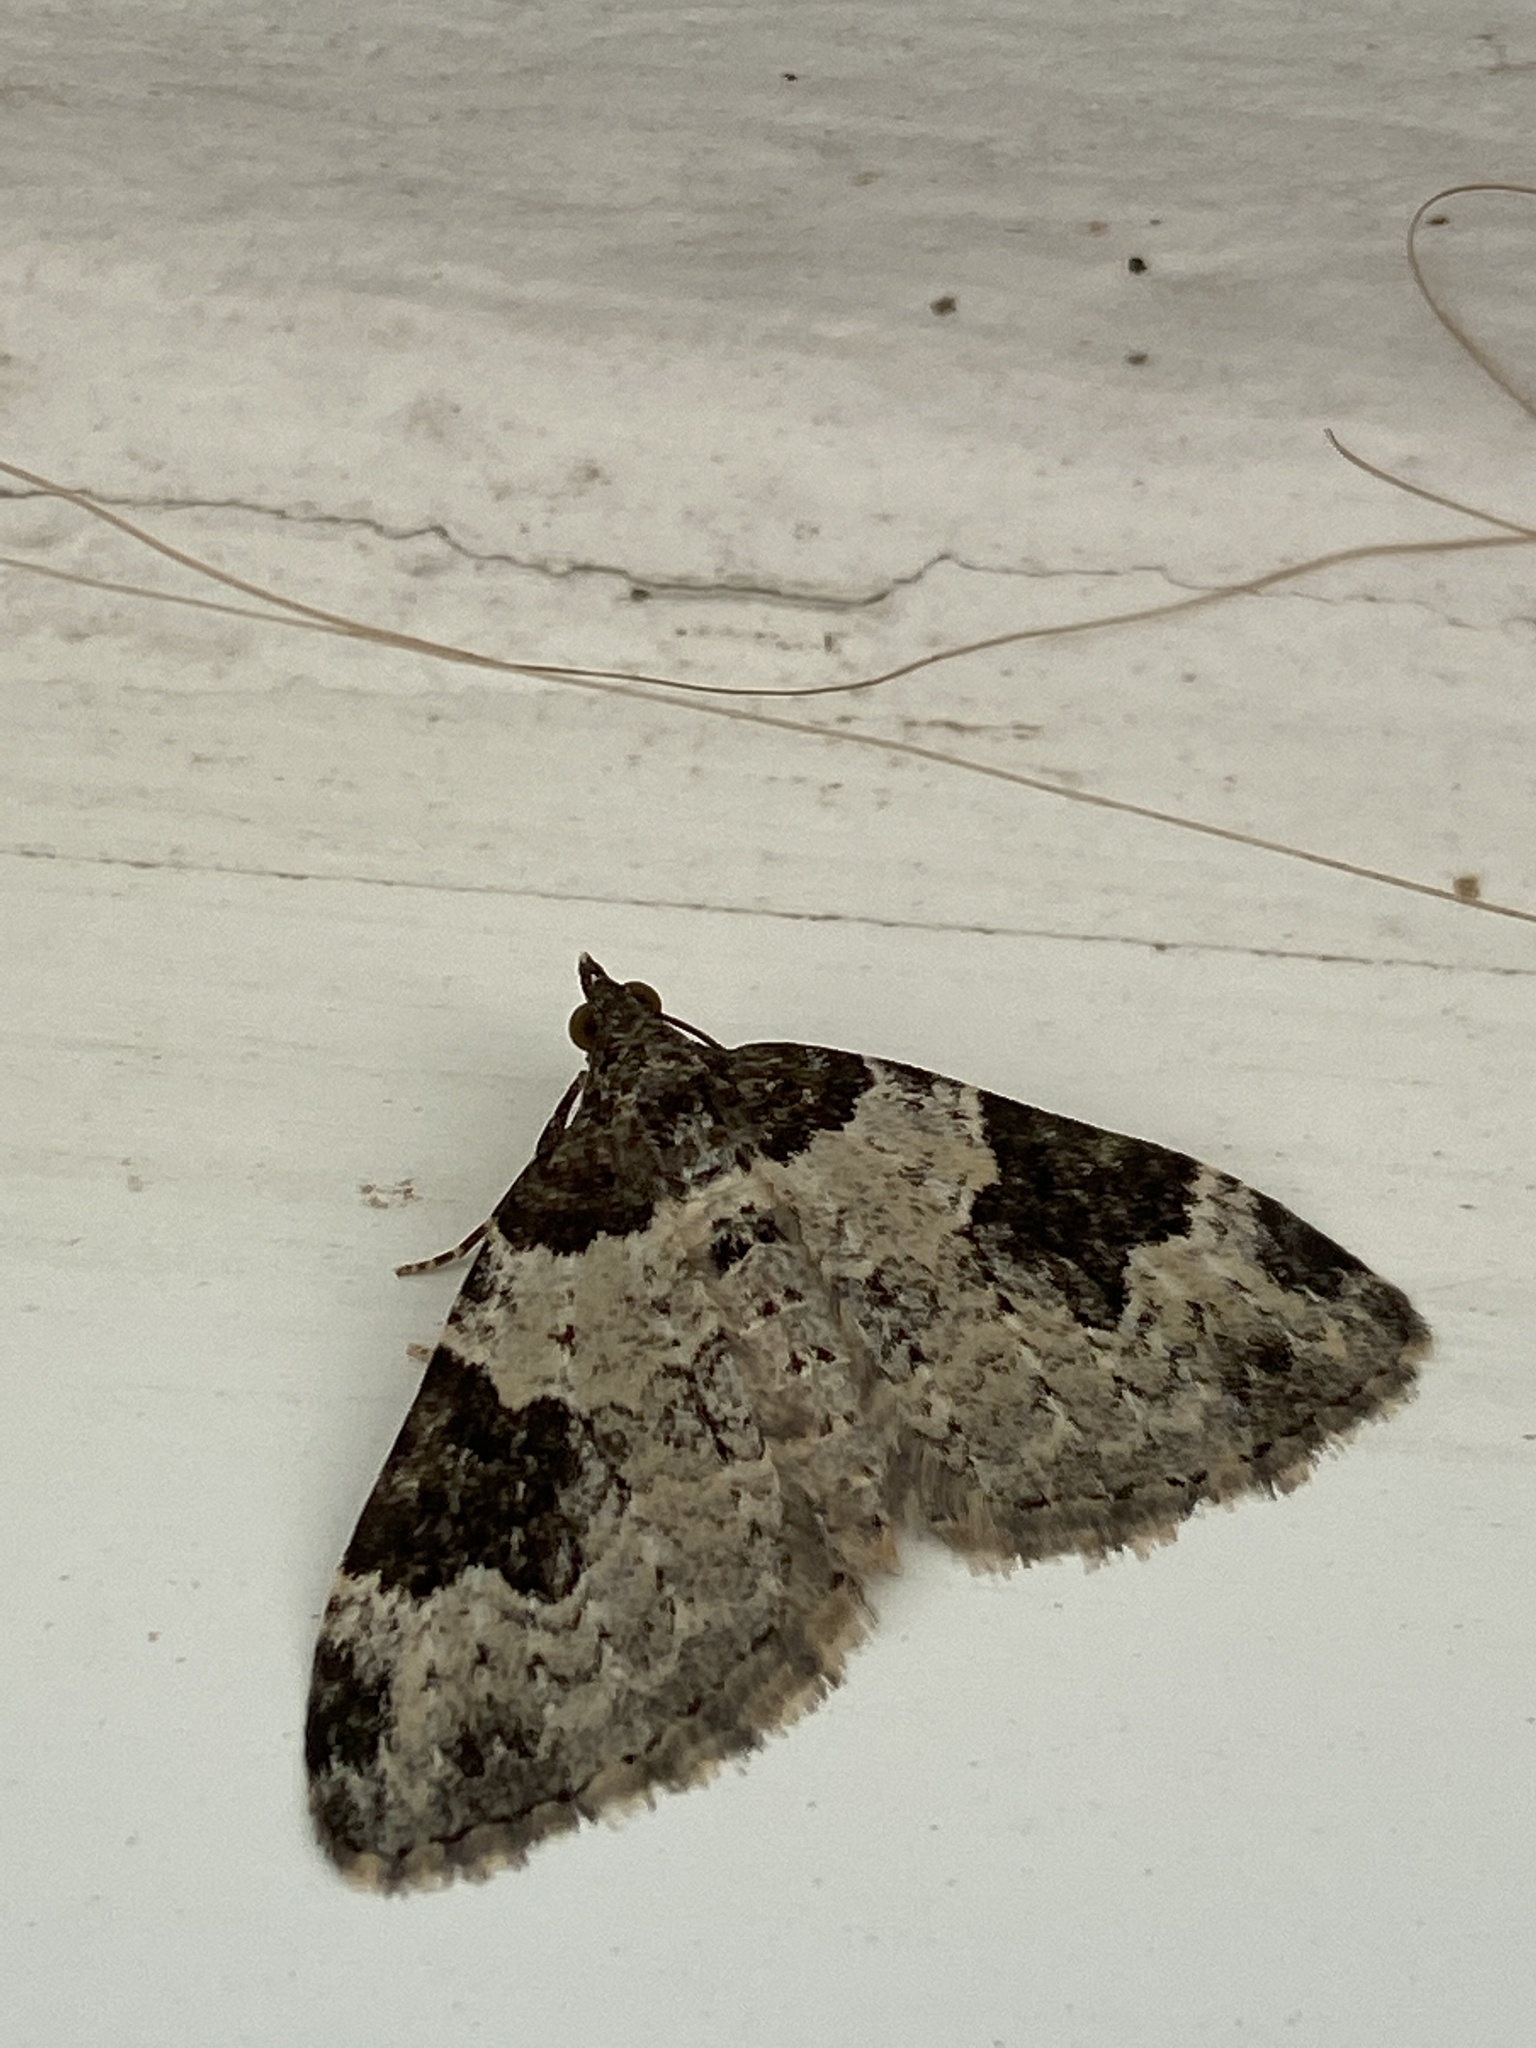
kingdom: Animalia
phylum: Arthropoda
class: Insecta
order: Lepidoptera
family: Geometridae
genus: Xanthorhoe
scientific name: Xanthorhoe fluctuata
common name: Garden carpet
